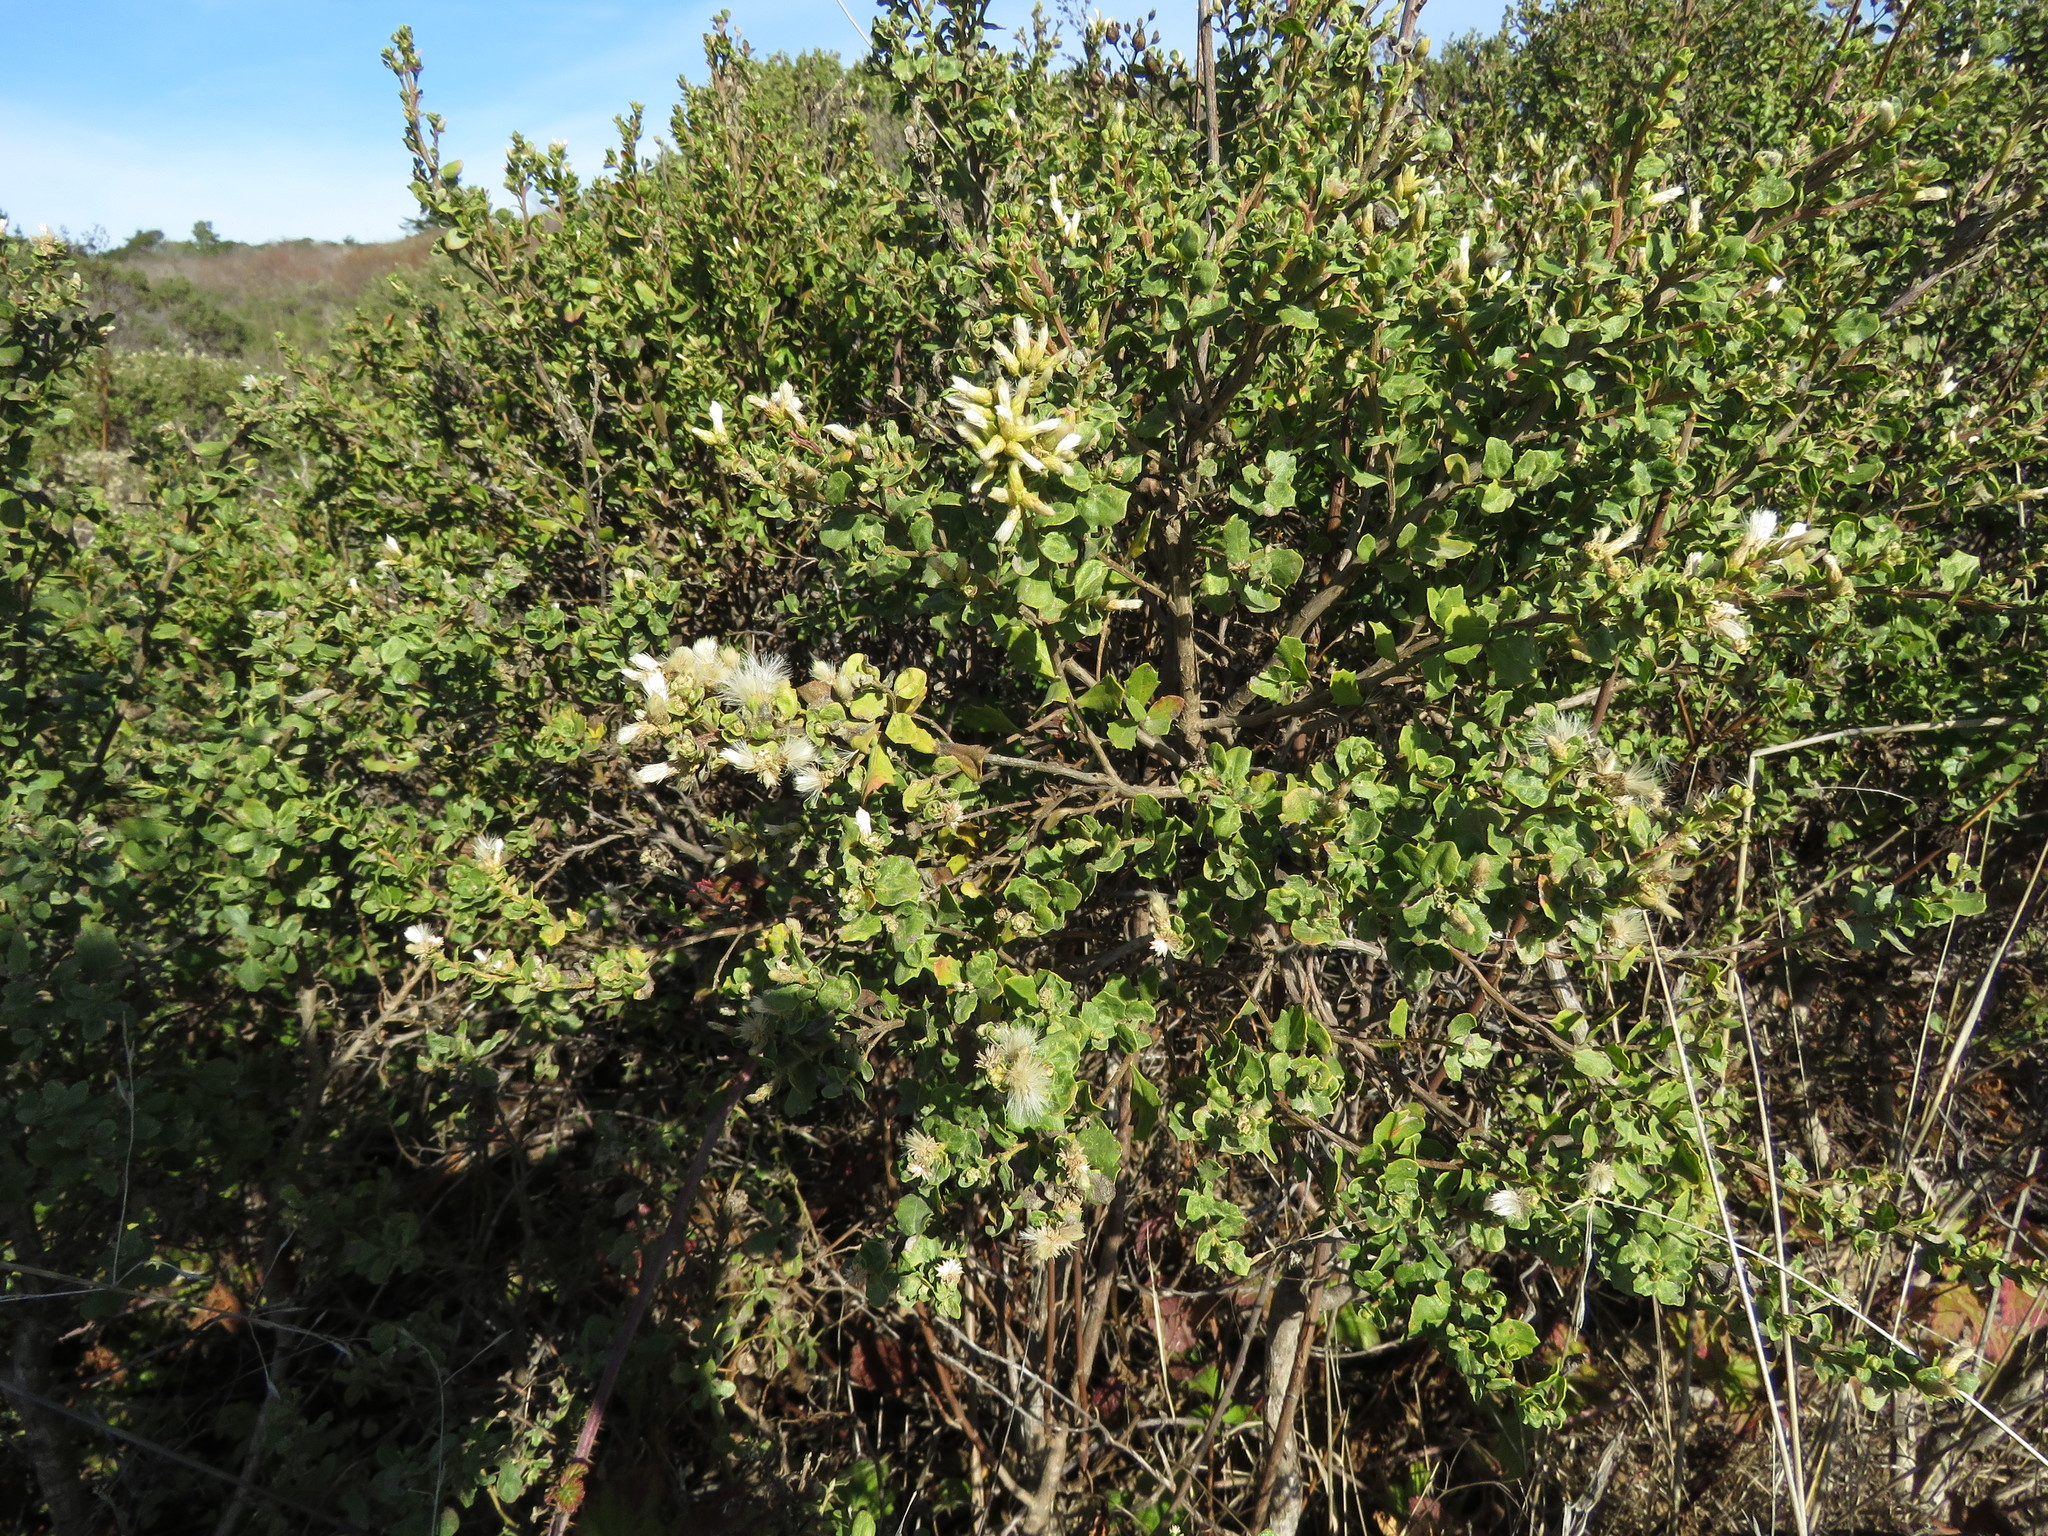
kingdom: Plantae
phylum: Tracheophyta
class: Magnoliopsida
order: Asterales
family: Asteraceae
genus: Baccharis
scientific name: Baccharis pilularis
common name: Coyotebrush
